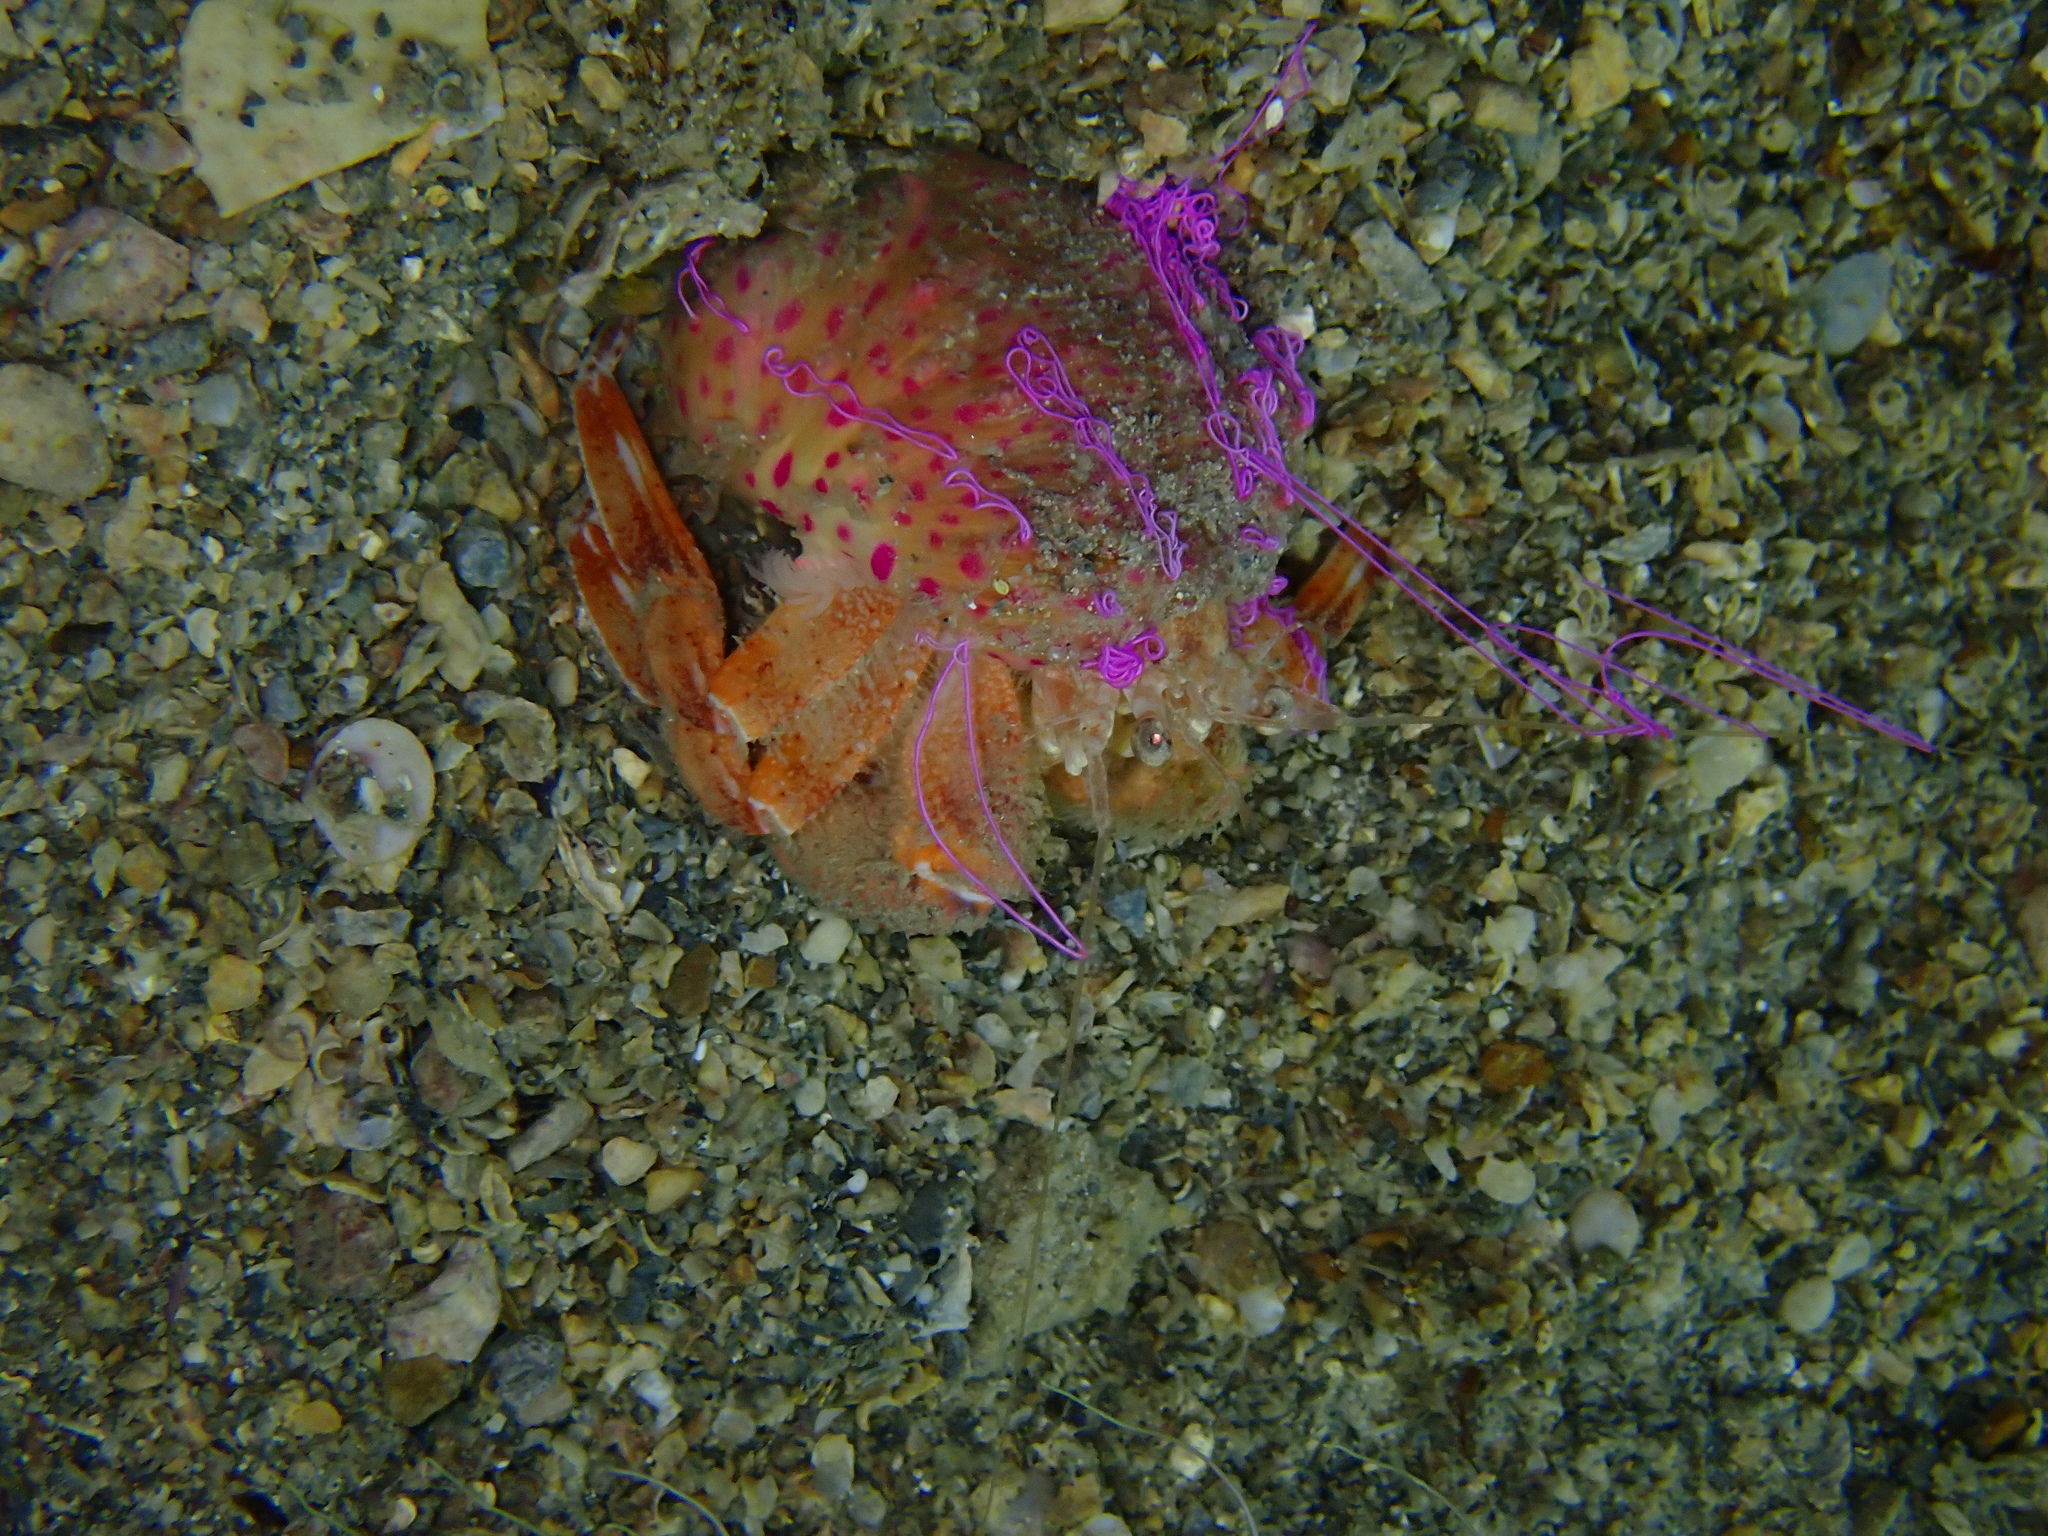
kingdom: Animalia
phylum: Arthropoda
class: Malacostraca
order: Decapoda
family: Paguridae
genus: Pagurus
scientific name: Pagurus prideaux
